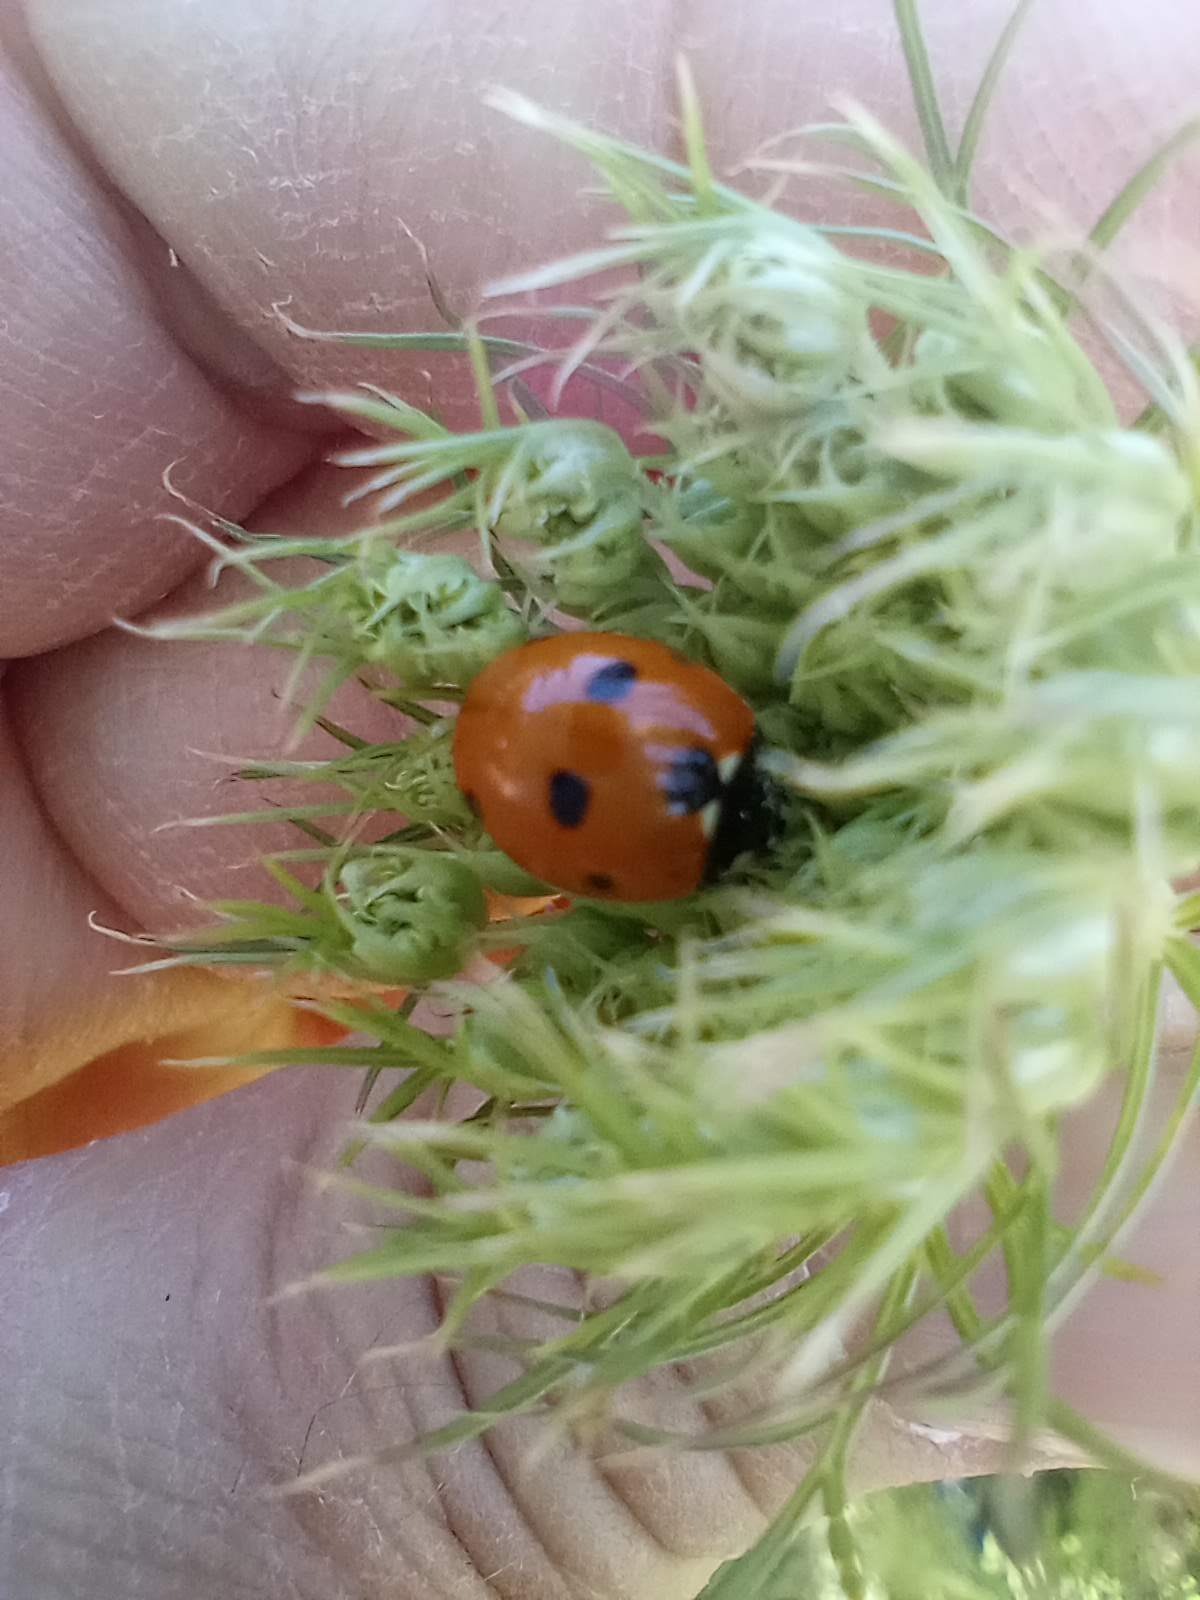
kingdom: Animalia
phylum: Arthropoda
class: Insecta
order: Coleoptera
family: Coccinellidae
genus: Coccinella
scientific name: Coccinella septempunctata
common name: Sevenspotted lady beetle
